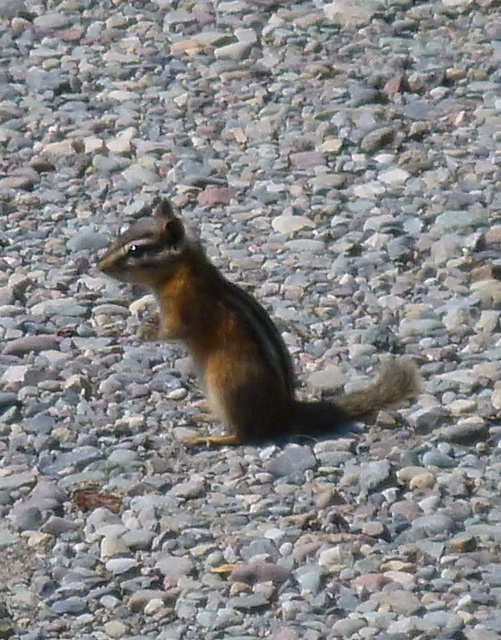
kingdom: Animalia
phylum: Chordata
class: Mammalia
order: Rodentia
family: Sciuridae
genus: Tamias
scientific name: Tamias minimus
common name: Least chipmunk
